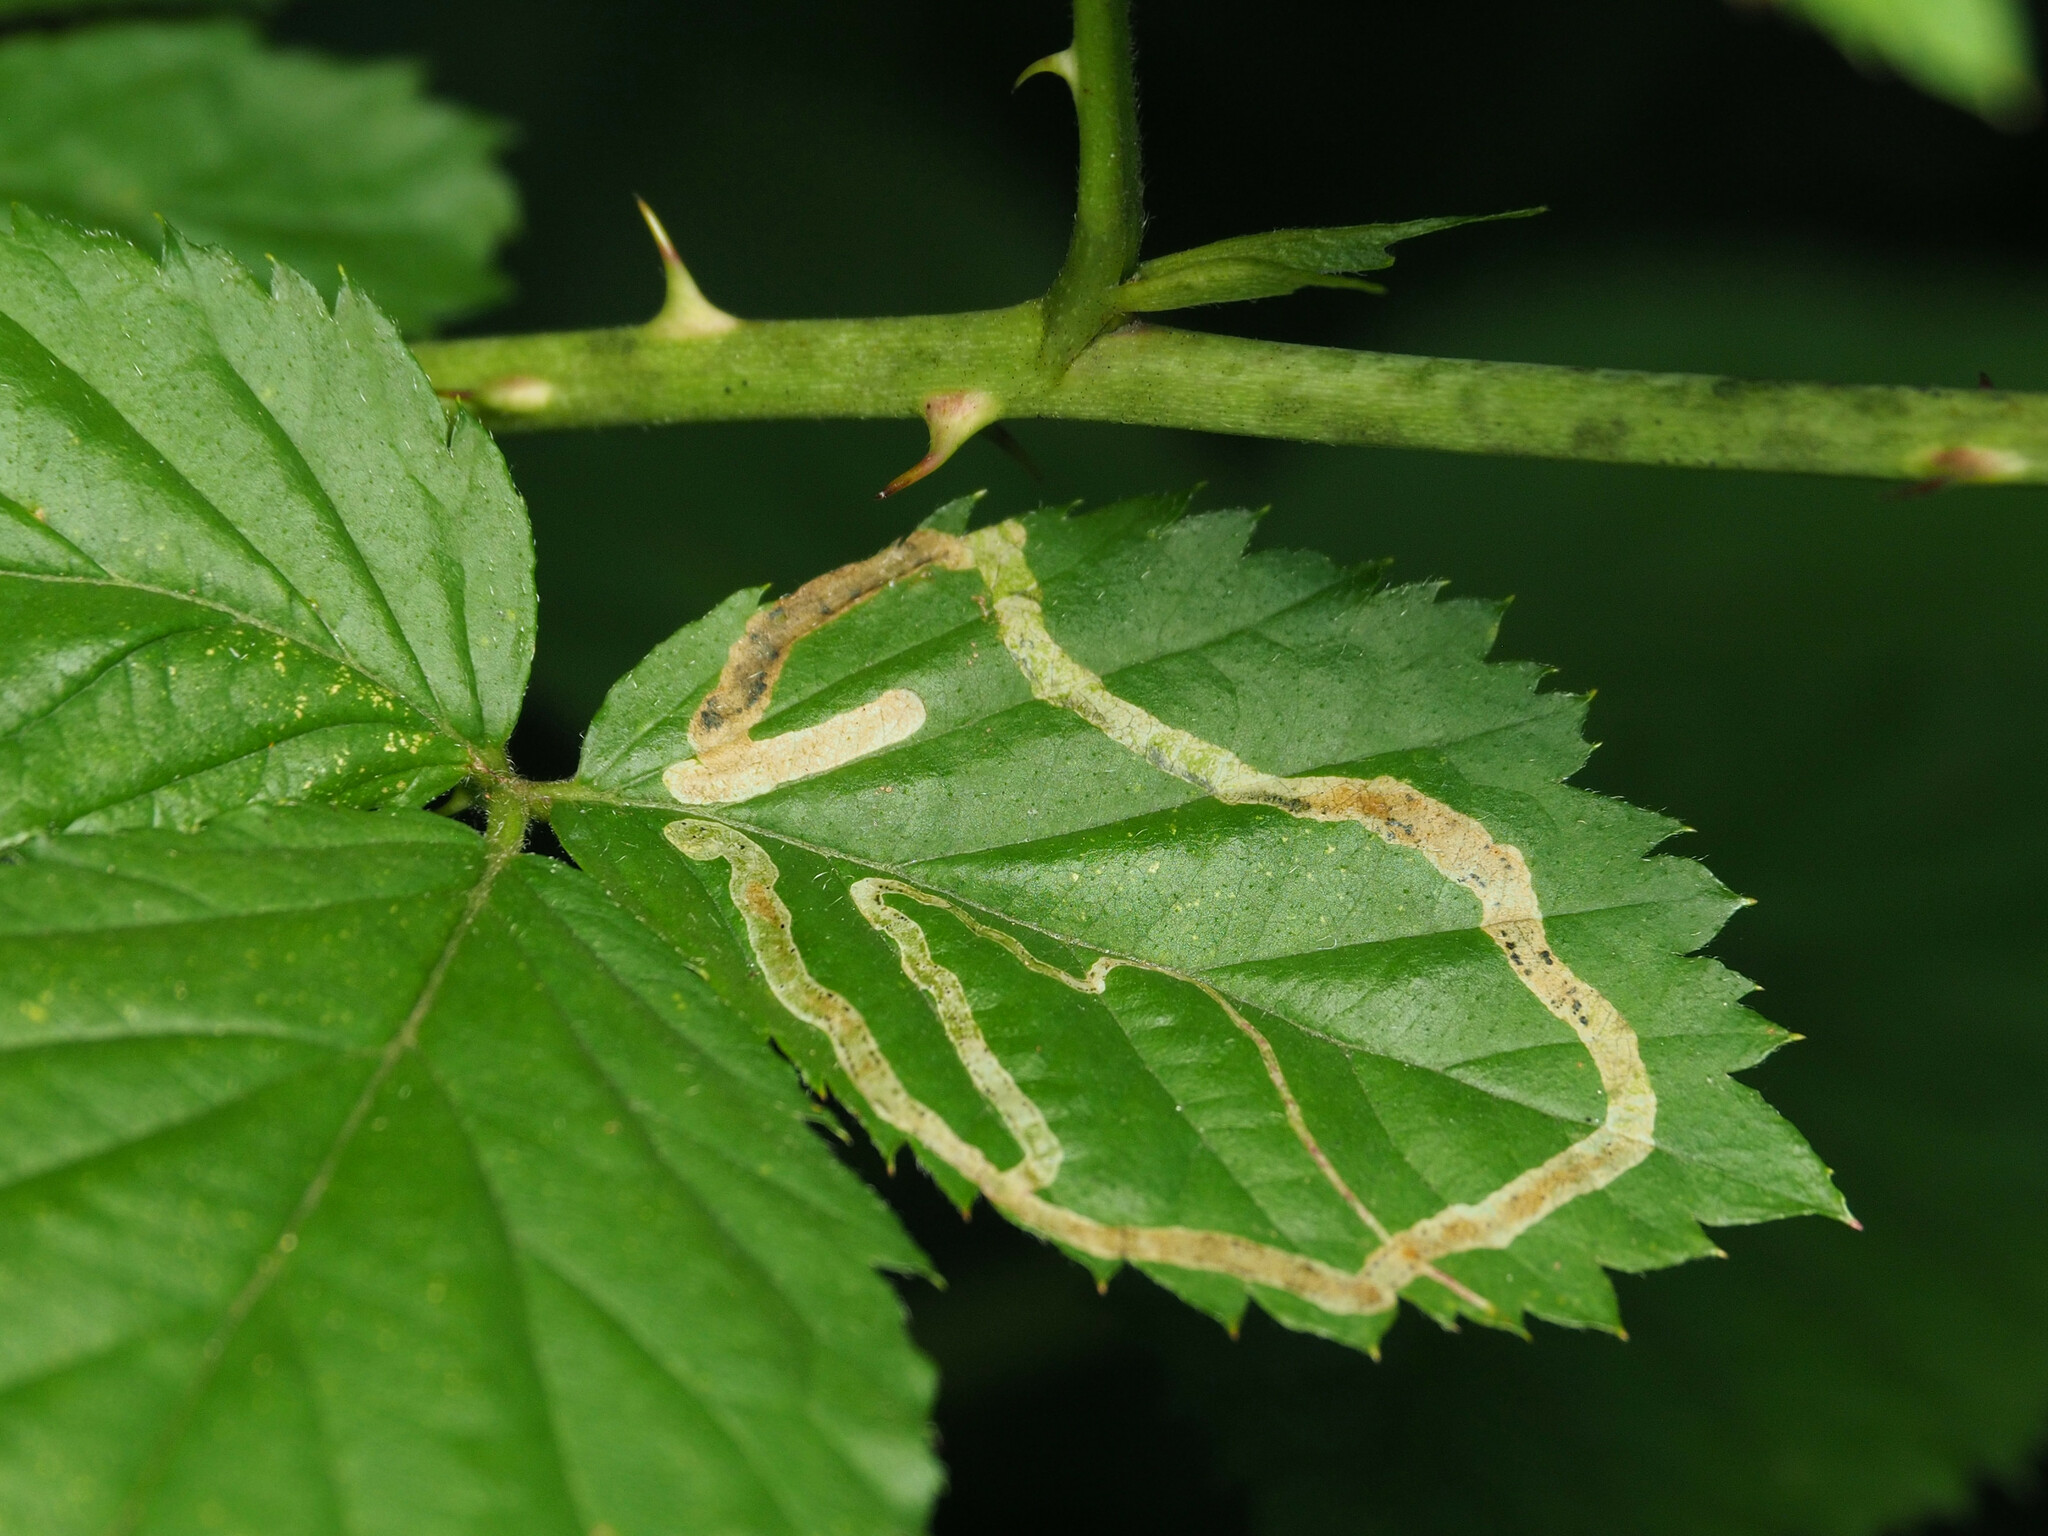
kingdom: Animalia
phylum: Arthropoda
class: Insecta
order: Diptera
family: Agromyzidae
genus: Agromyza
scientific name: Agromyza vockerothi
